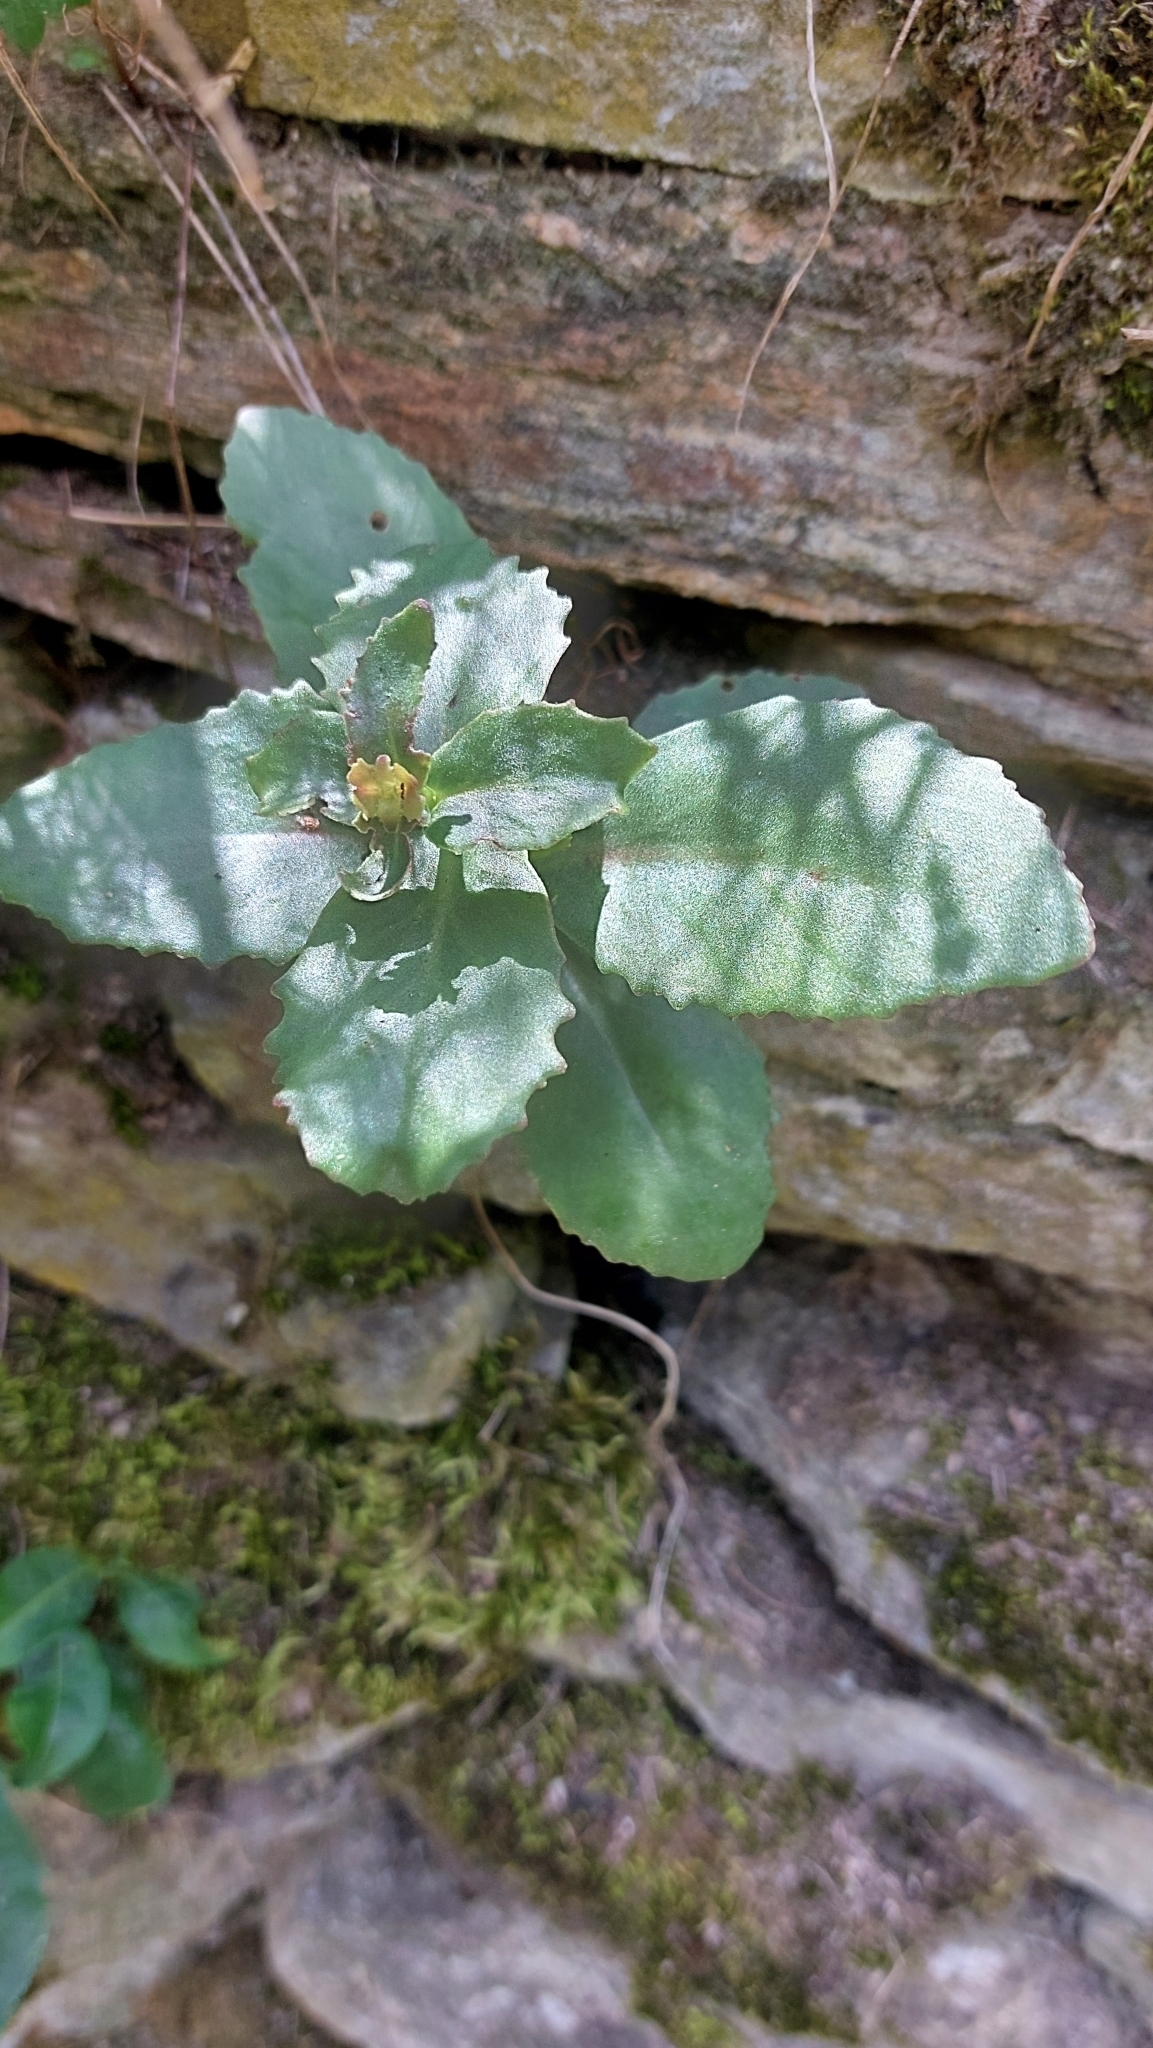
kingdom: Plantae
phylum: Tracheophyta
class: Magnoliopsida
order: Saxifragales
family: Crassulaceae
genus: Hylotelephium
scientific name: Hylotelephium maximum
